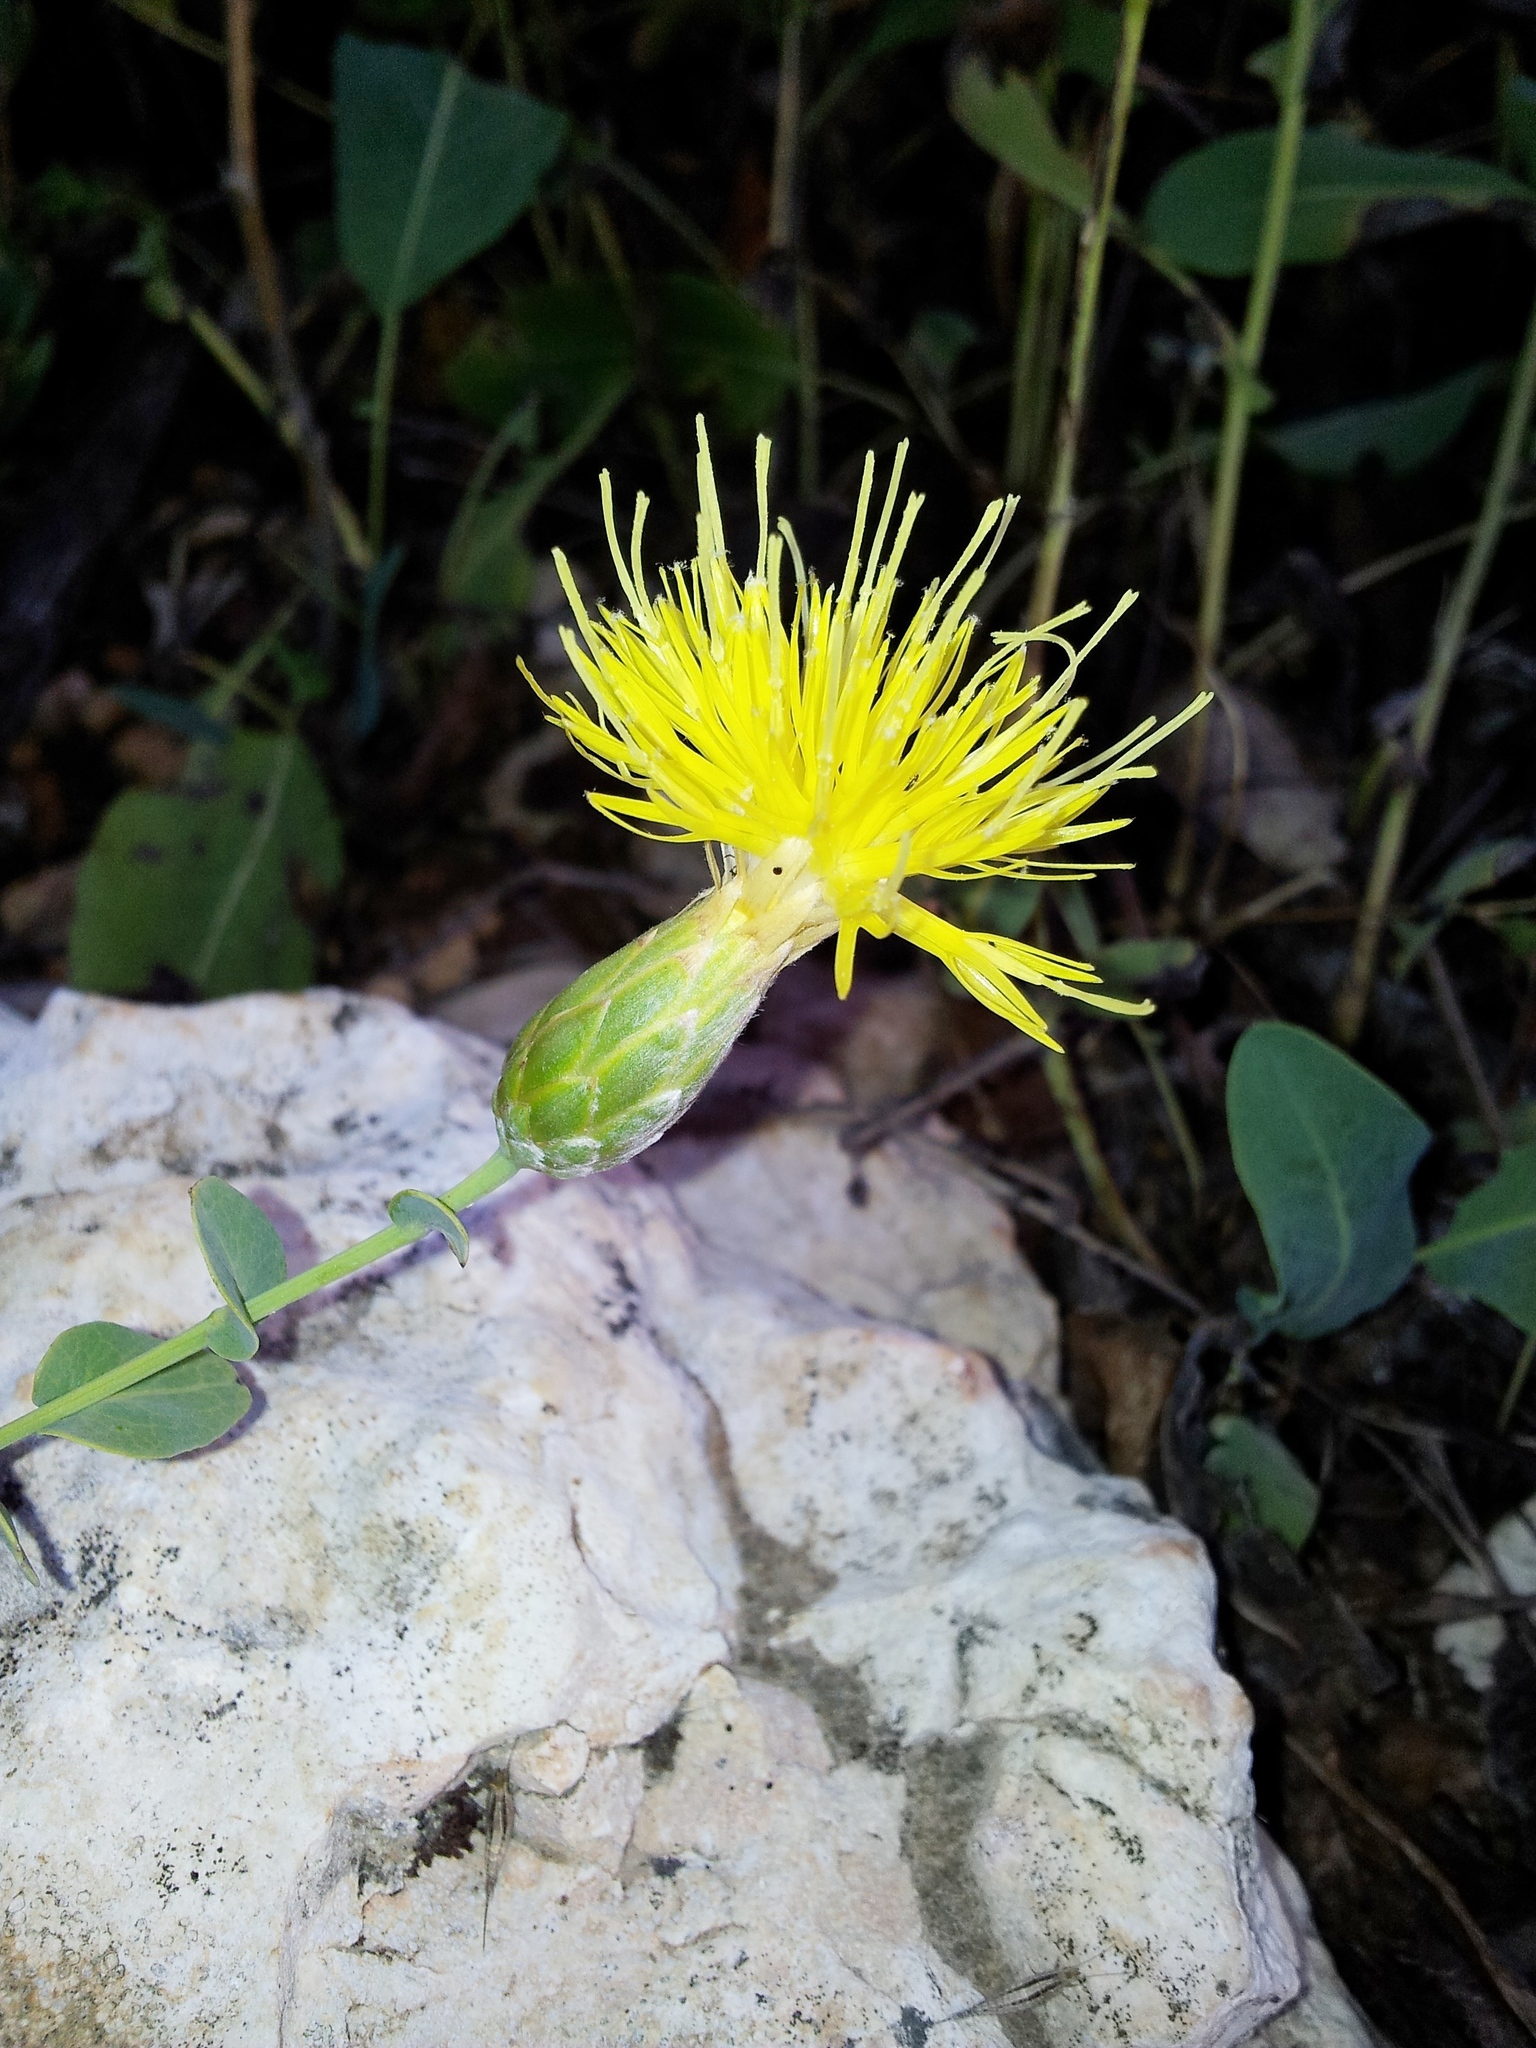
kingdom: Plantae
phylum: Tracheophyta
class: Magnoliopsida
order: Asterales
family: Asteraceae
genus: Klasea
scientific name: Klasea cerinthifolia
